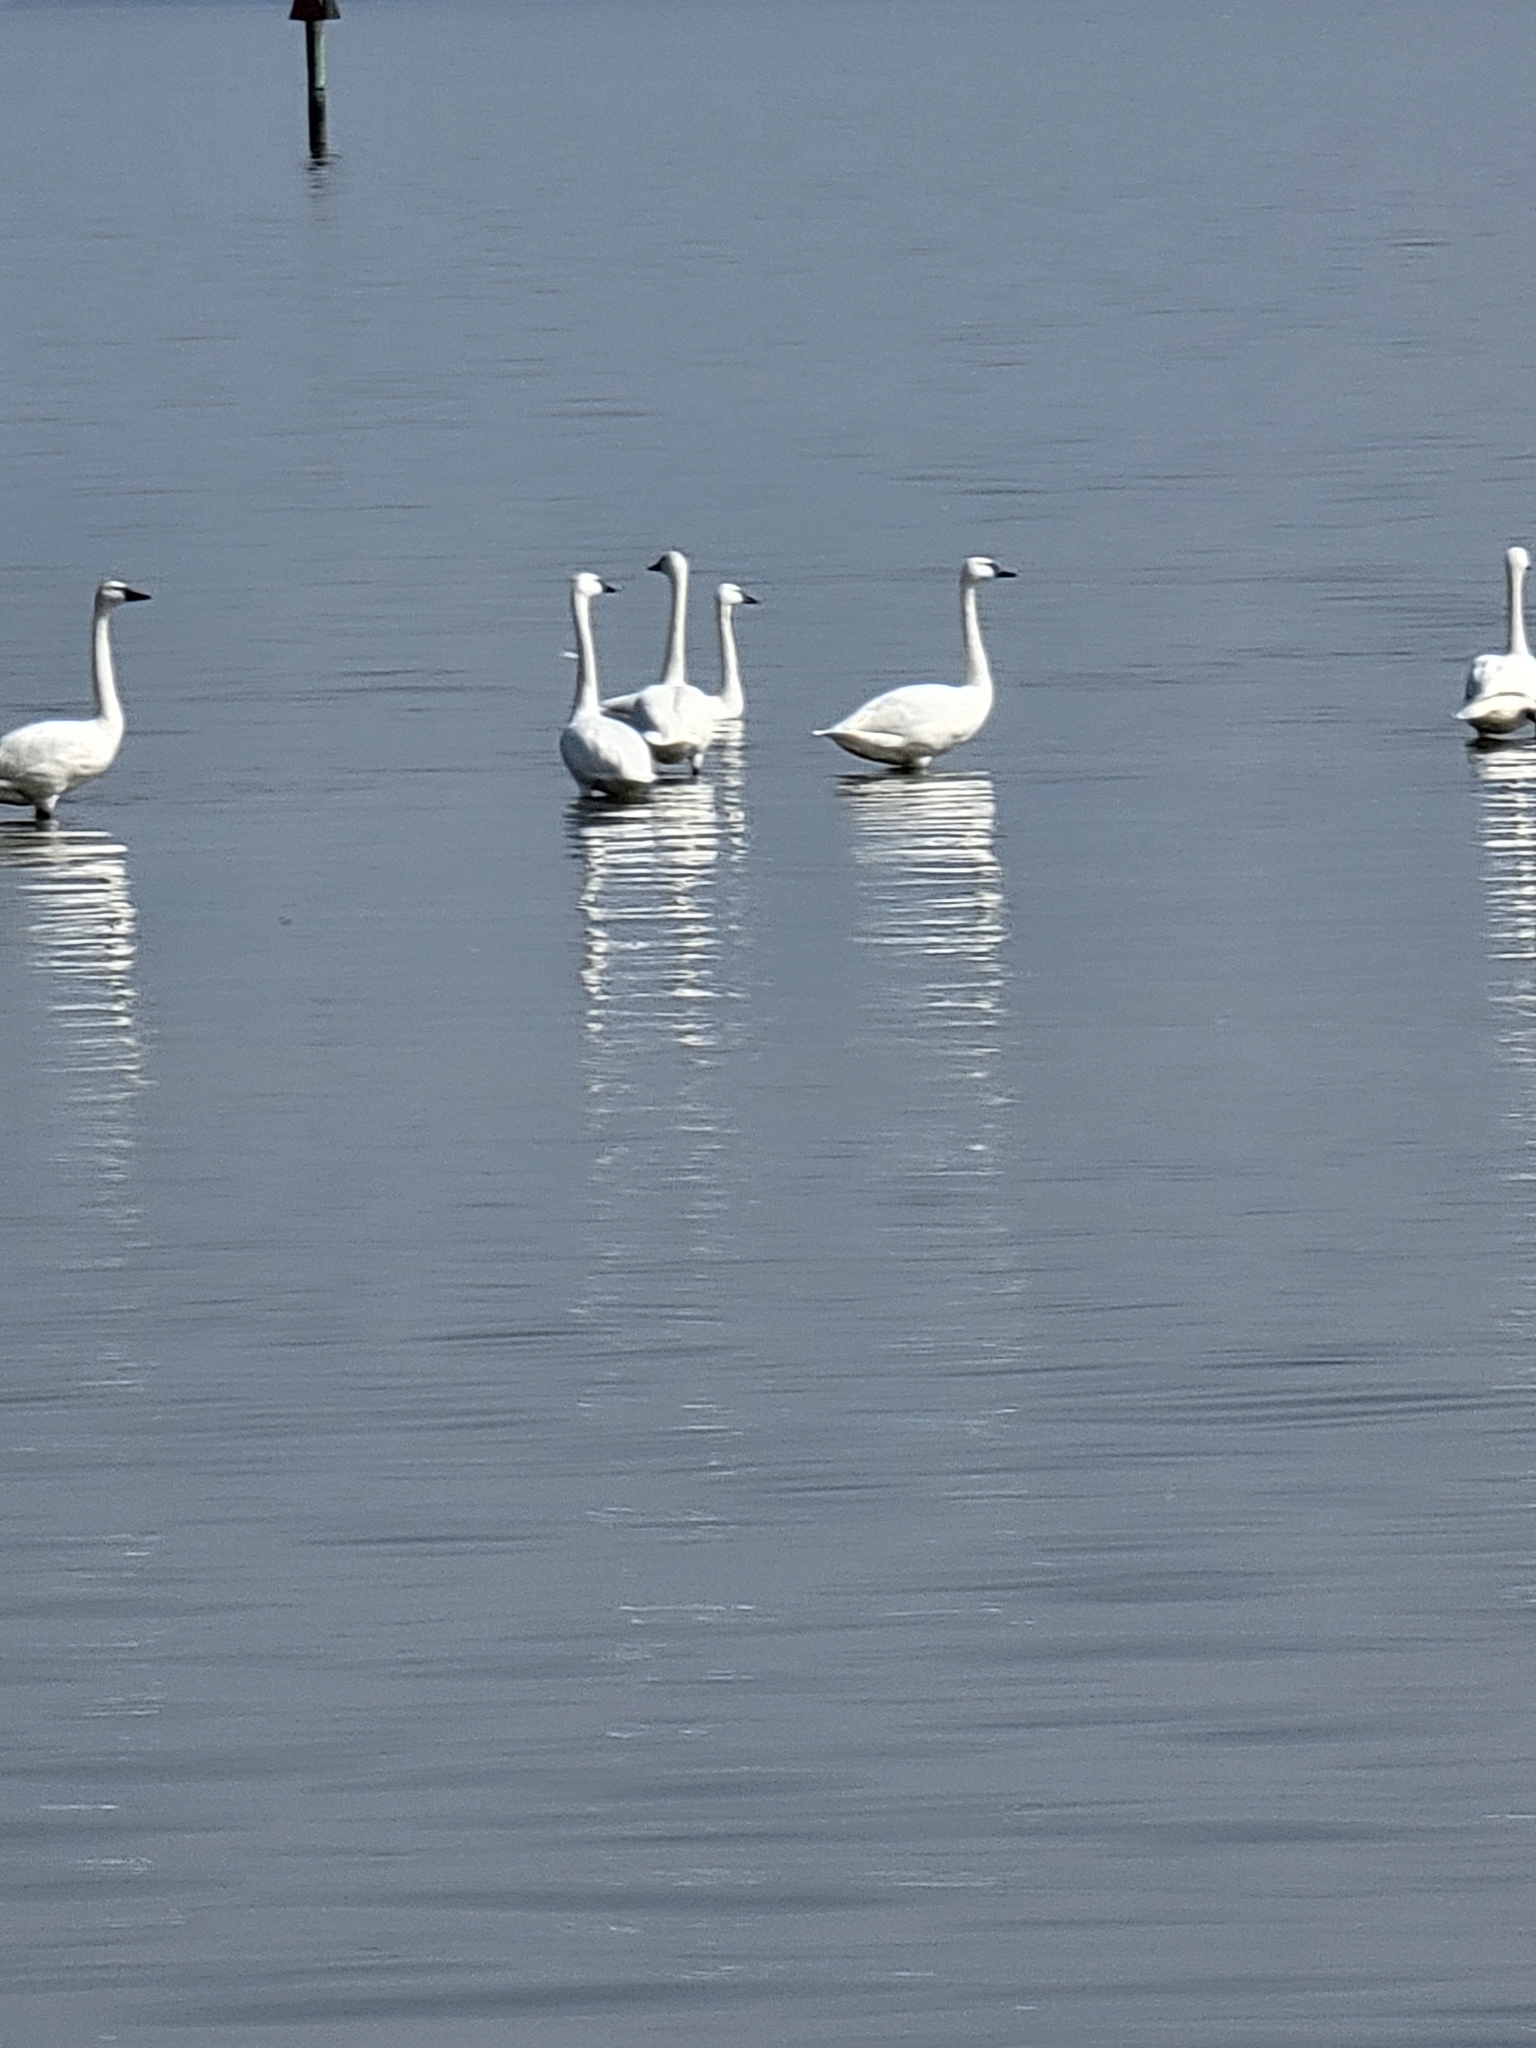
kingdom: Animalia
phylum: Chordata
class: Aves
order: Anseriformes
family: Anatidae
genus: Cygnus
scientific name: Cygnus columbianus
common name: Tundra swan
